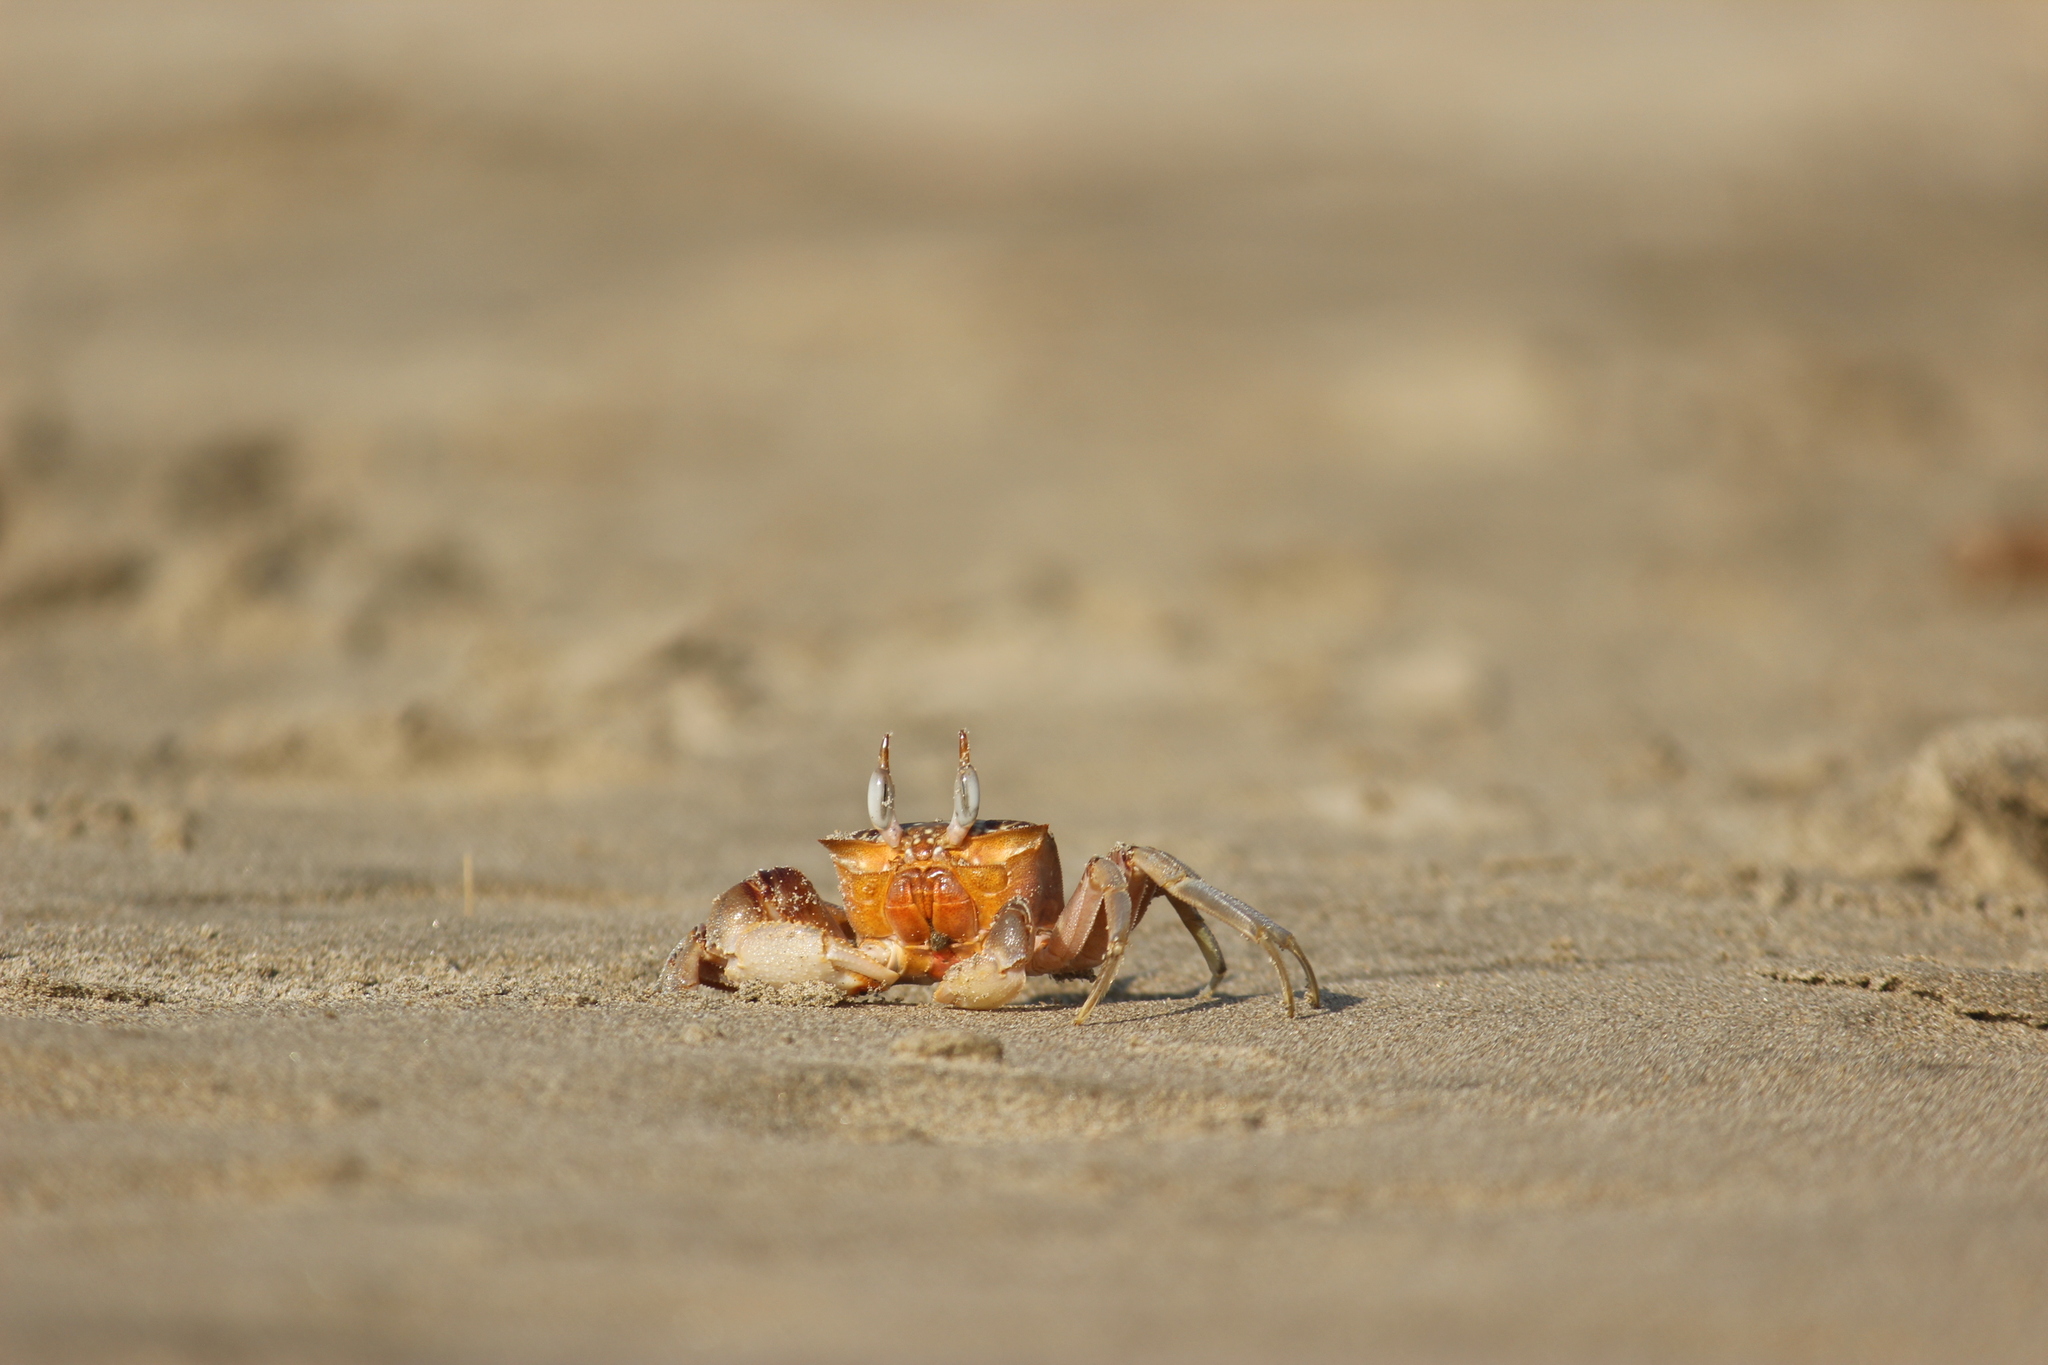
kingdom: Animalia
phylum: Arthropoda
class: Malacostraca
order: Decapoda
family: Ocypodidae
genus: Ocypode
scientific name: Ocypode gaudichaudii
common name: Pacific ghost crab
